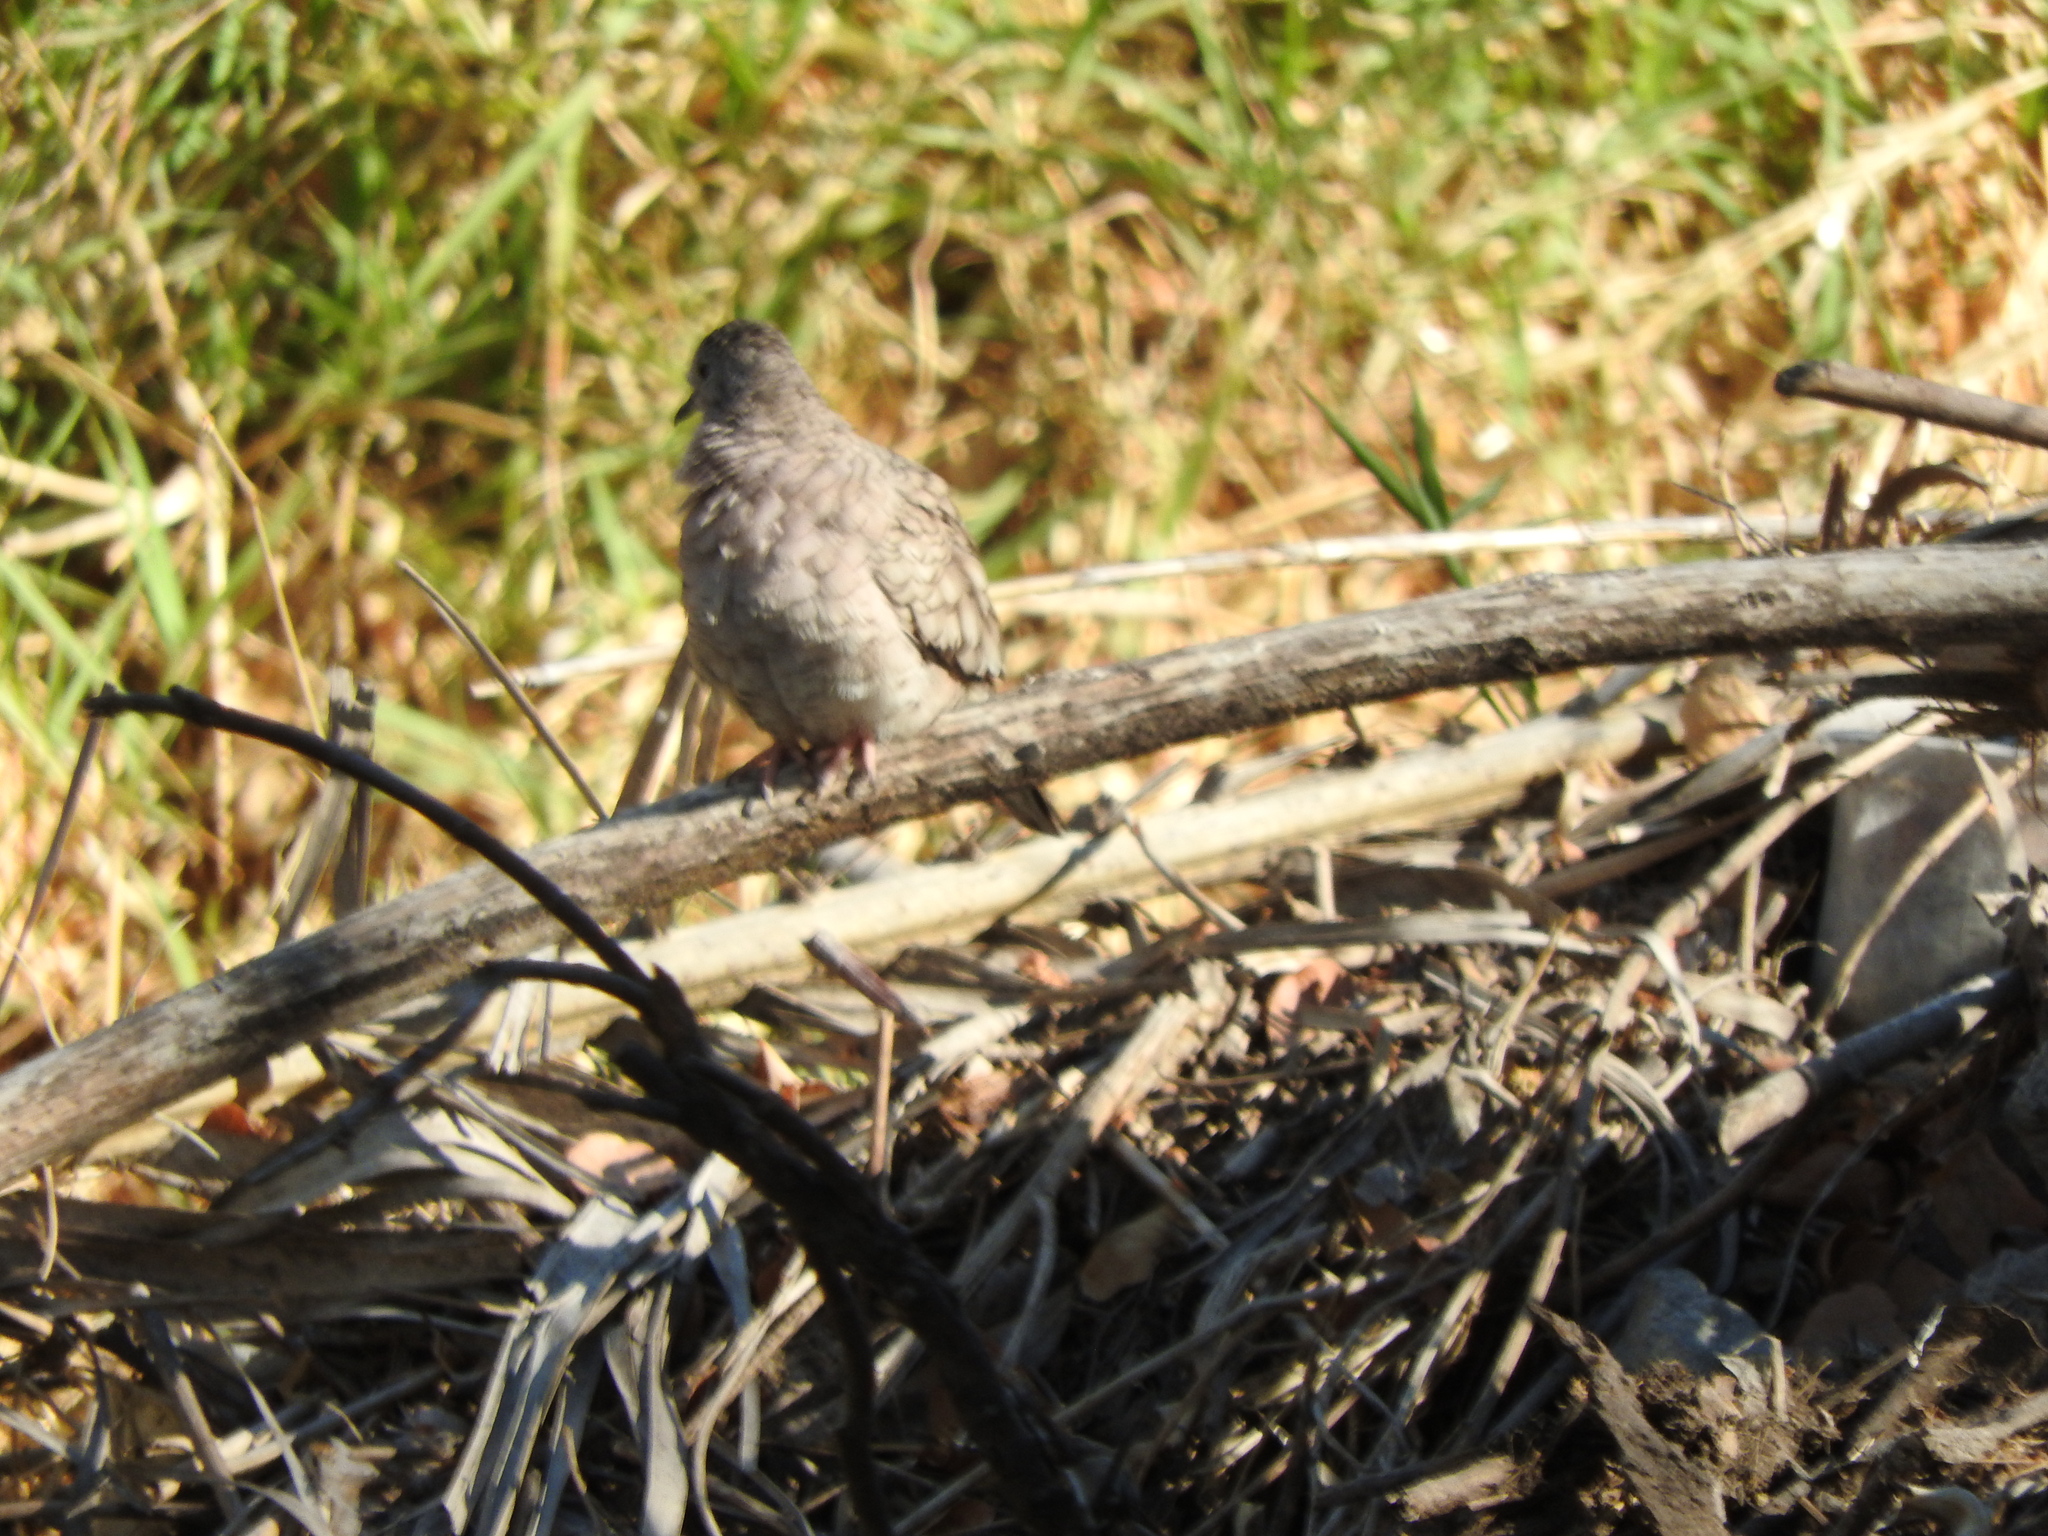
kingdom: Animalia
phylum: Chordata
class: Aves
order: Columbiformes
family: Columbidae
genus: Columbina
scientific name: Columbina inca
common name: Inca dove
